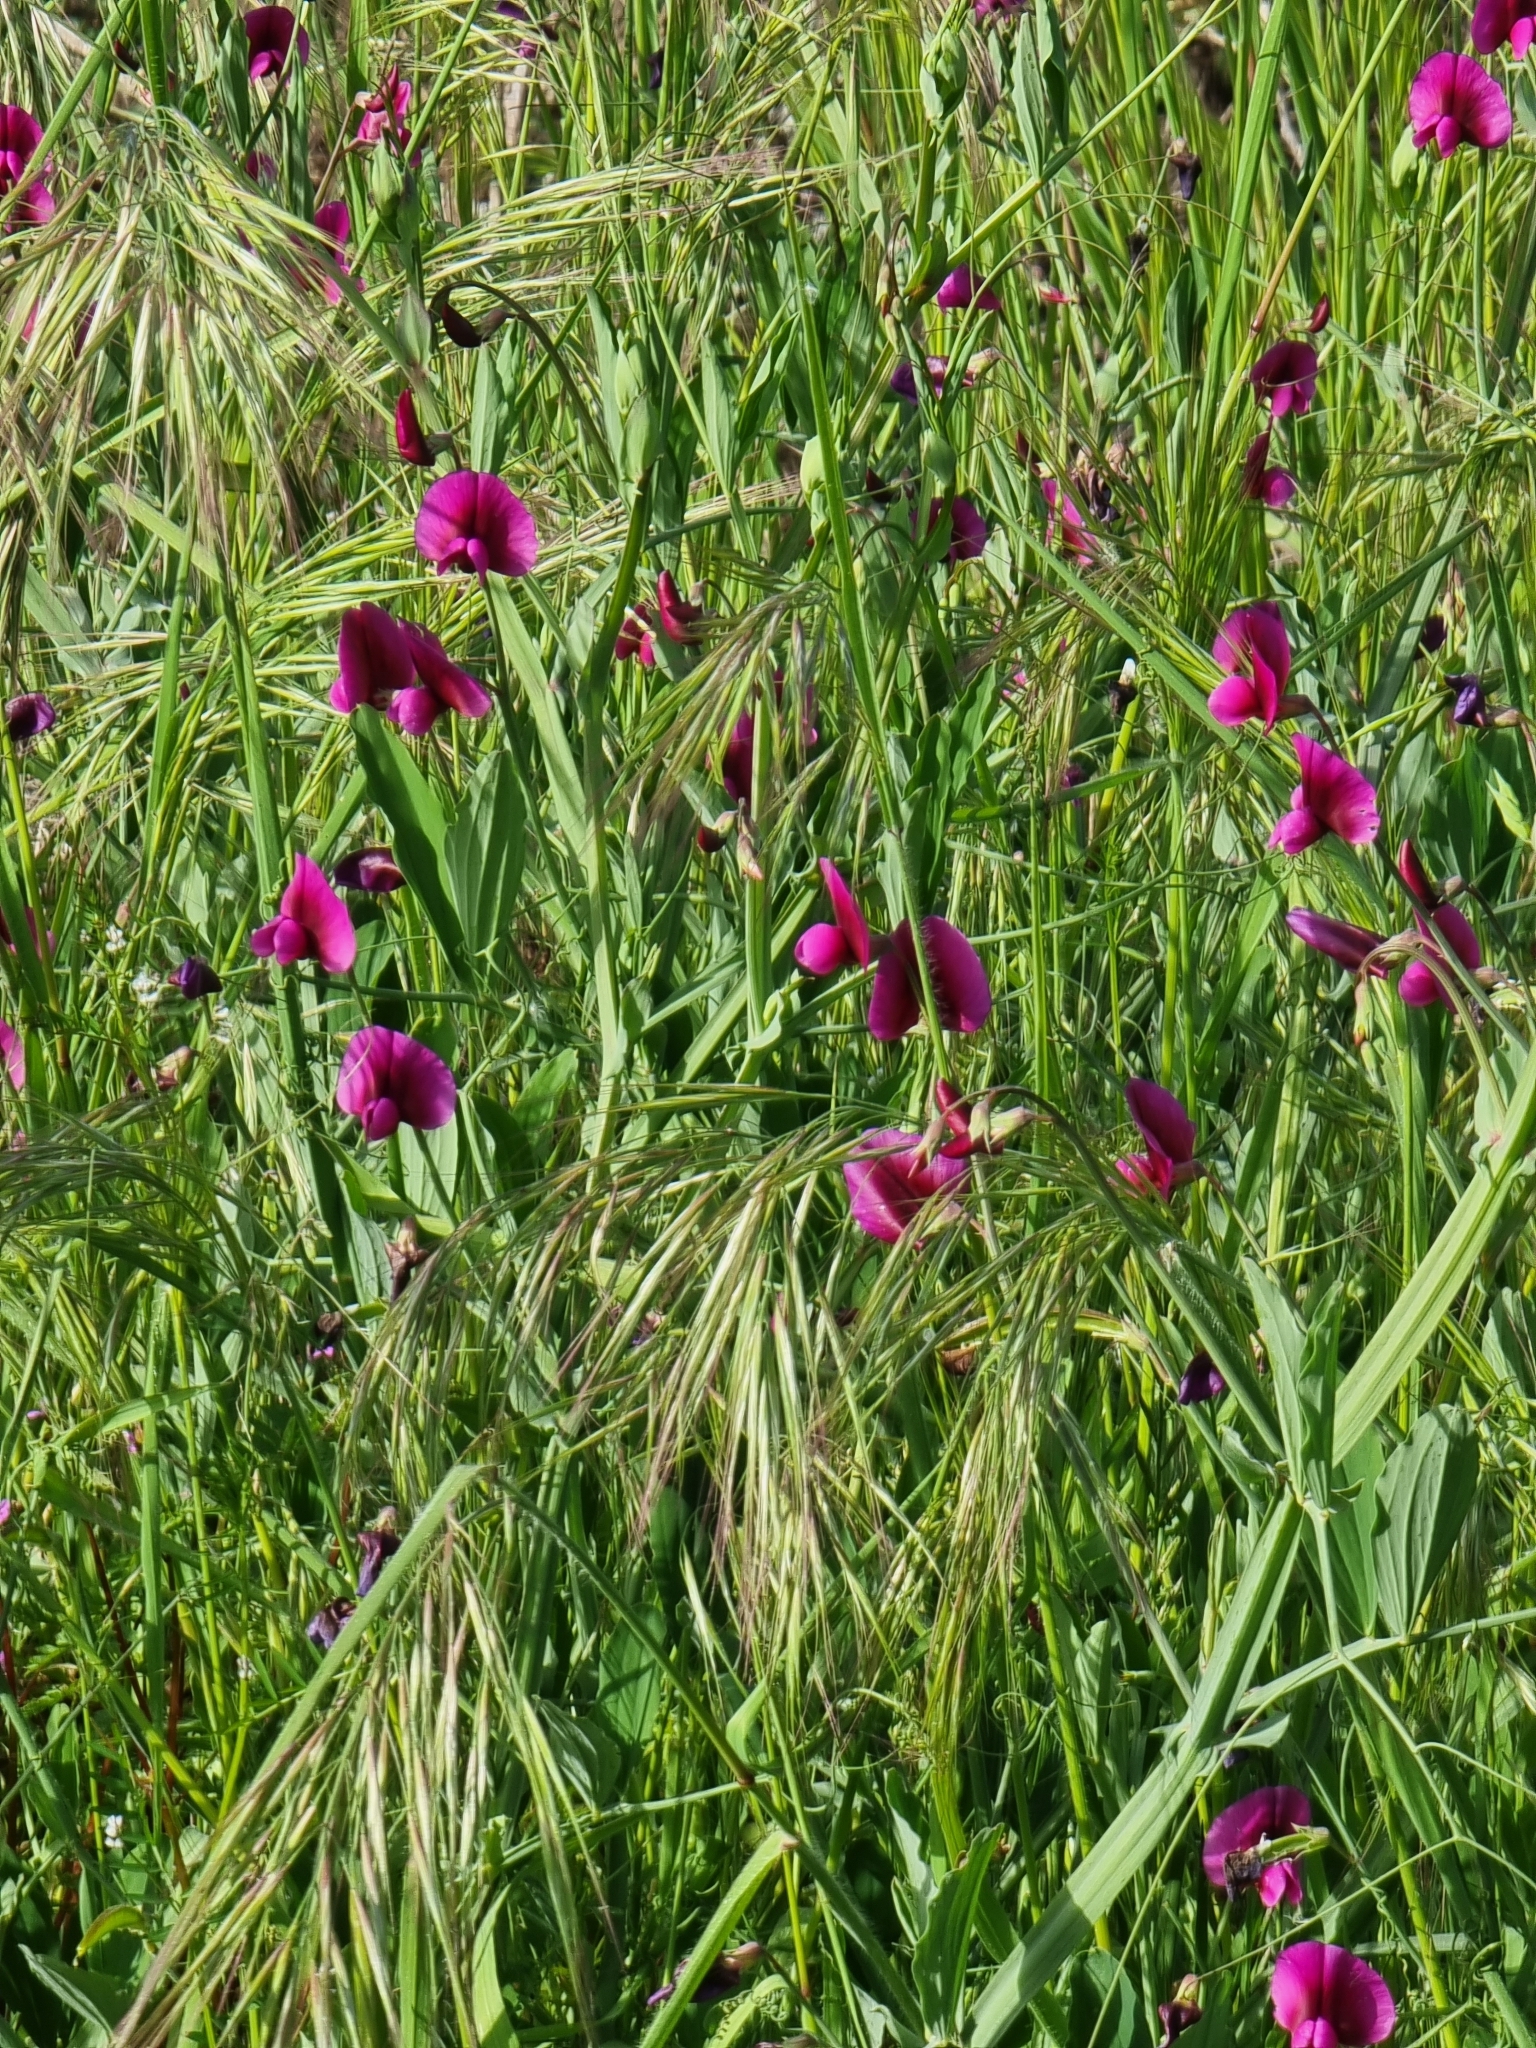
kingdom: Plantae
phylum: Tracheophyta
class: Magnoliopsida
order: Fabales
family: Fabaceae
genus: Lathyrus
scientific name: Lathyrus tingitanus
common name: Tangier pea
